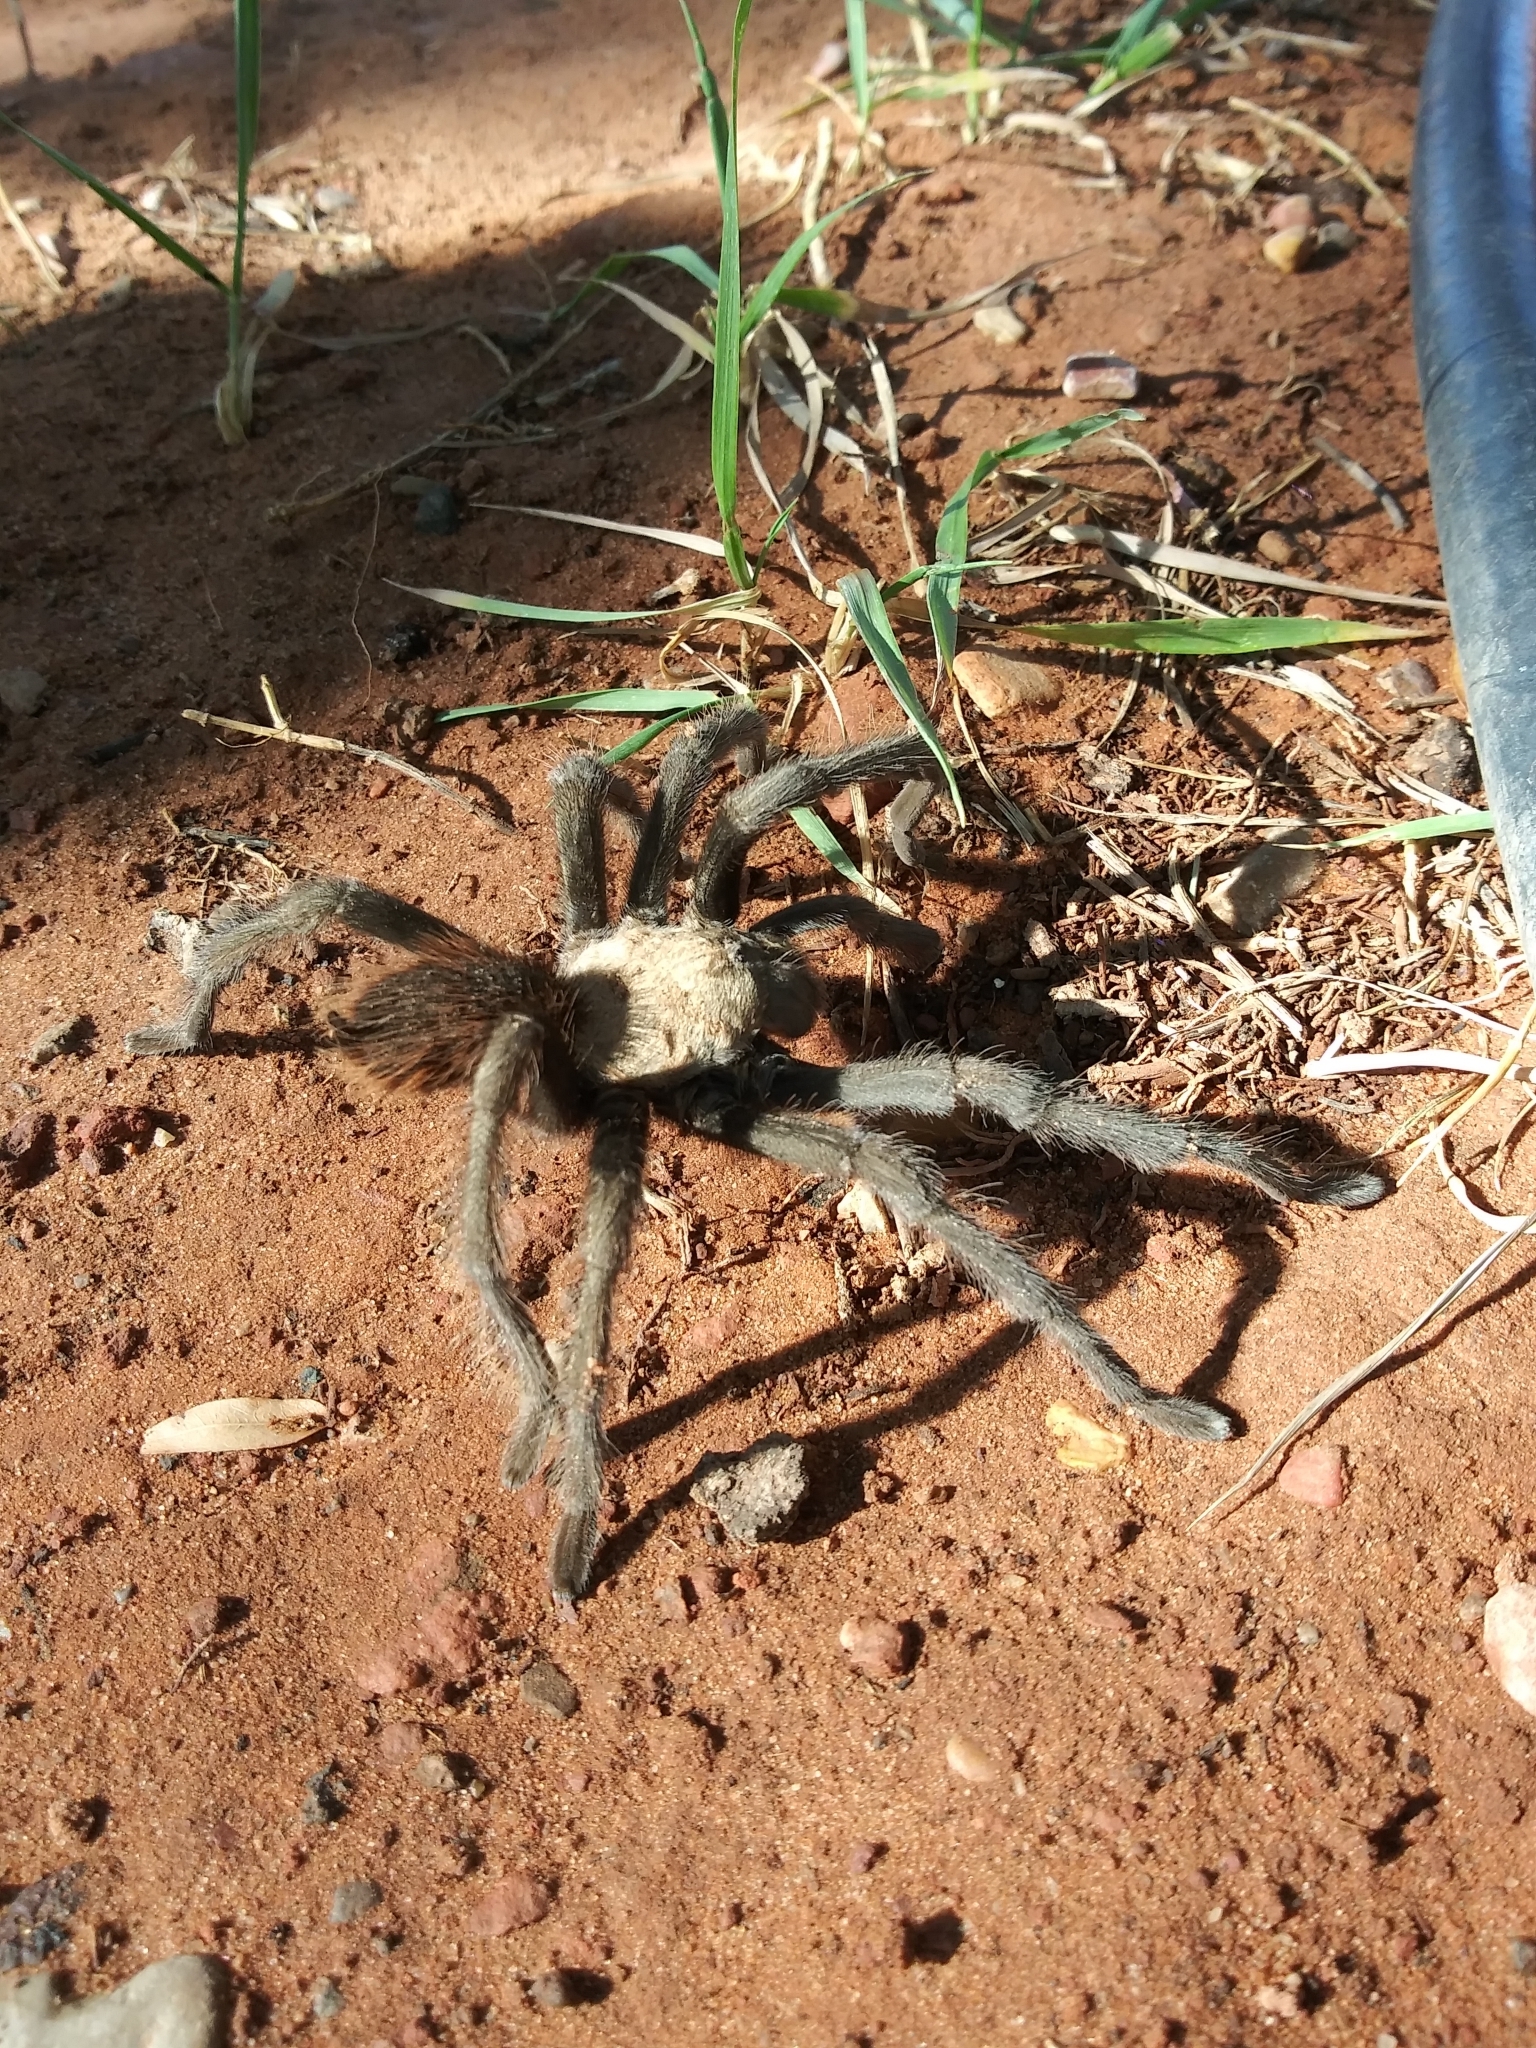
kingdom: Animalia
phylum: Arthropoda
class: Arachnida
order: Araneae
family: Theraphosidae
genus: Aphonopelma
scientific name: Aphonopelma iodius
